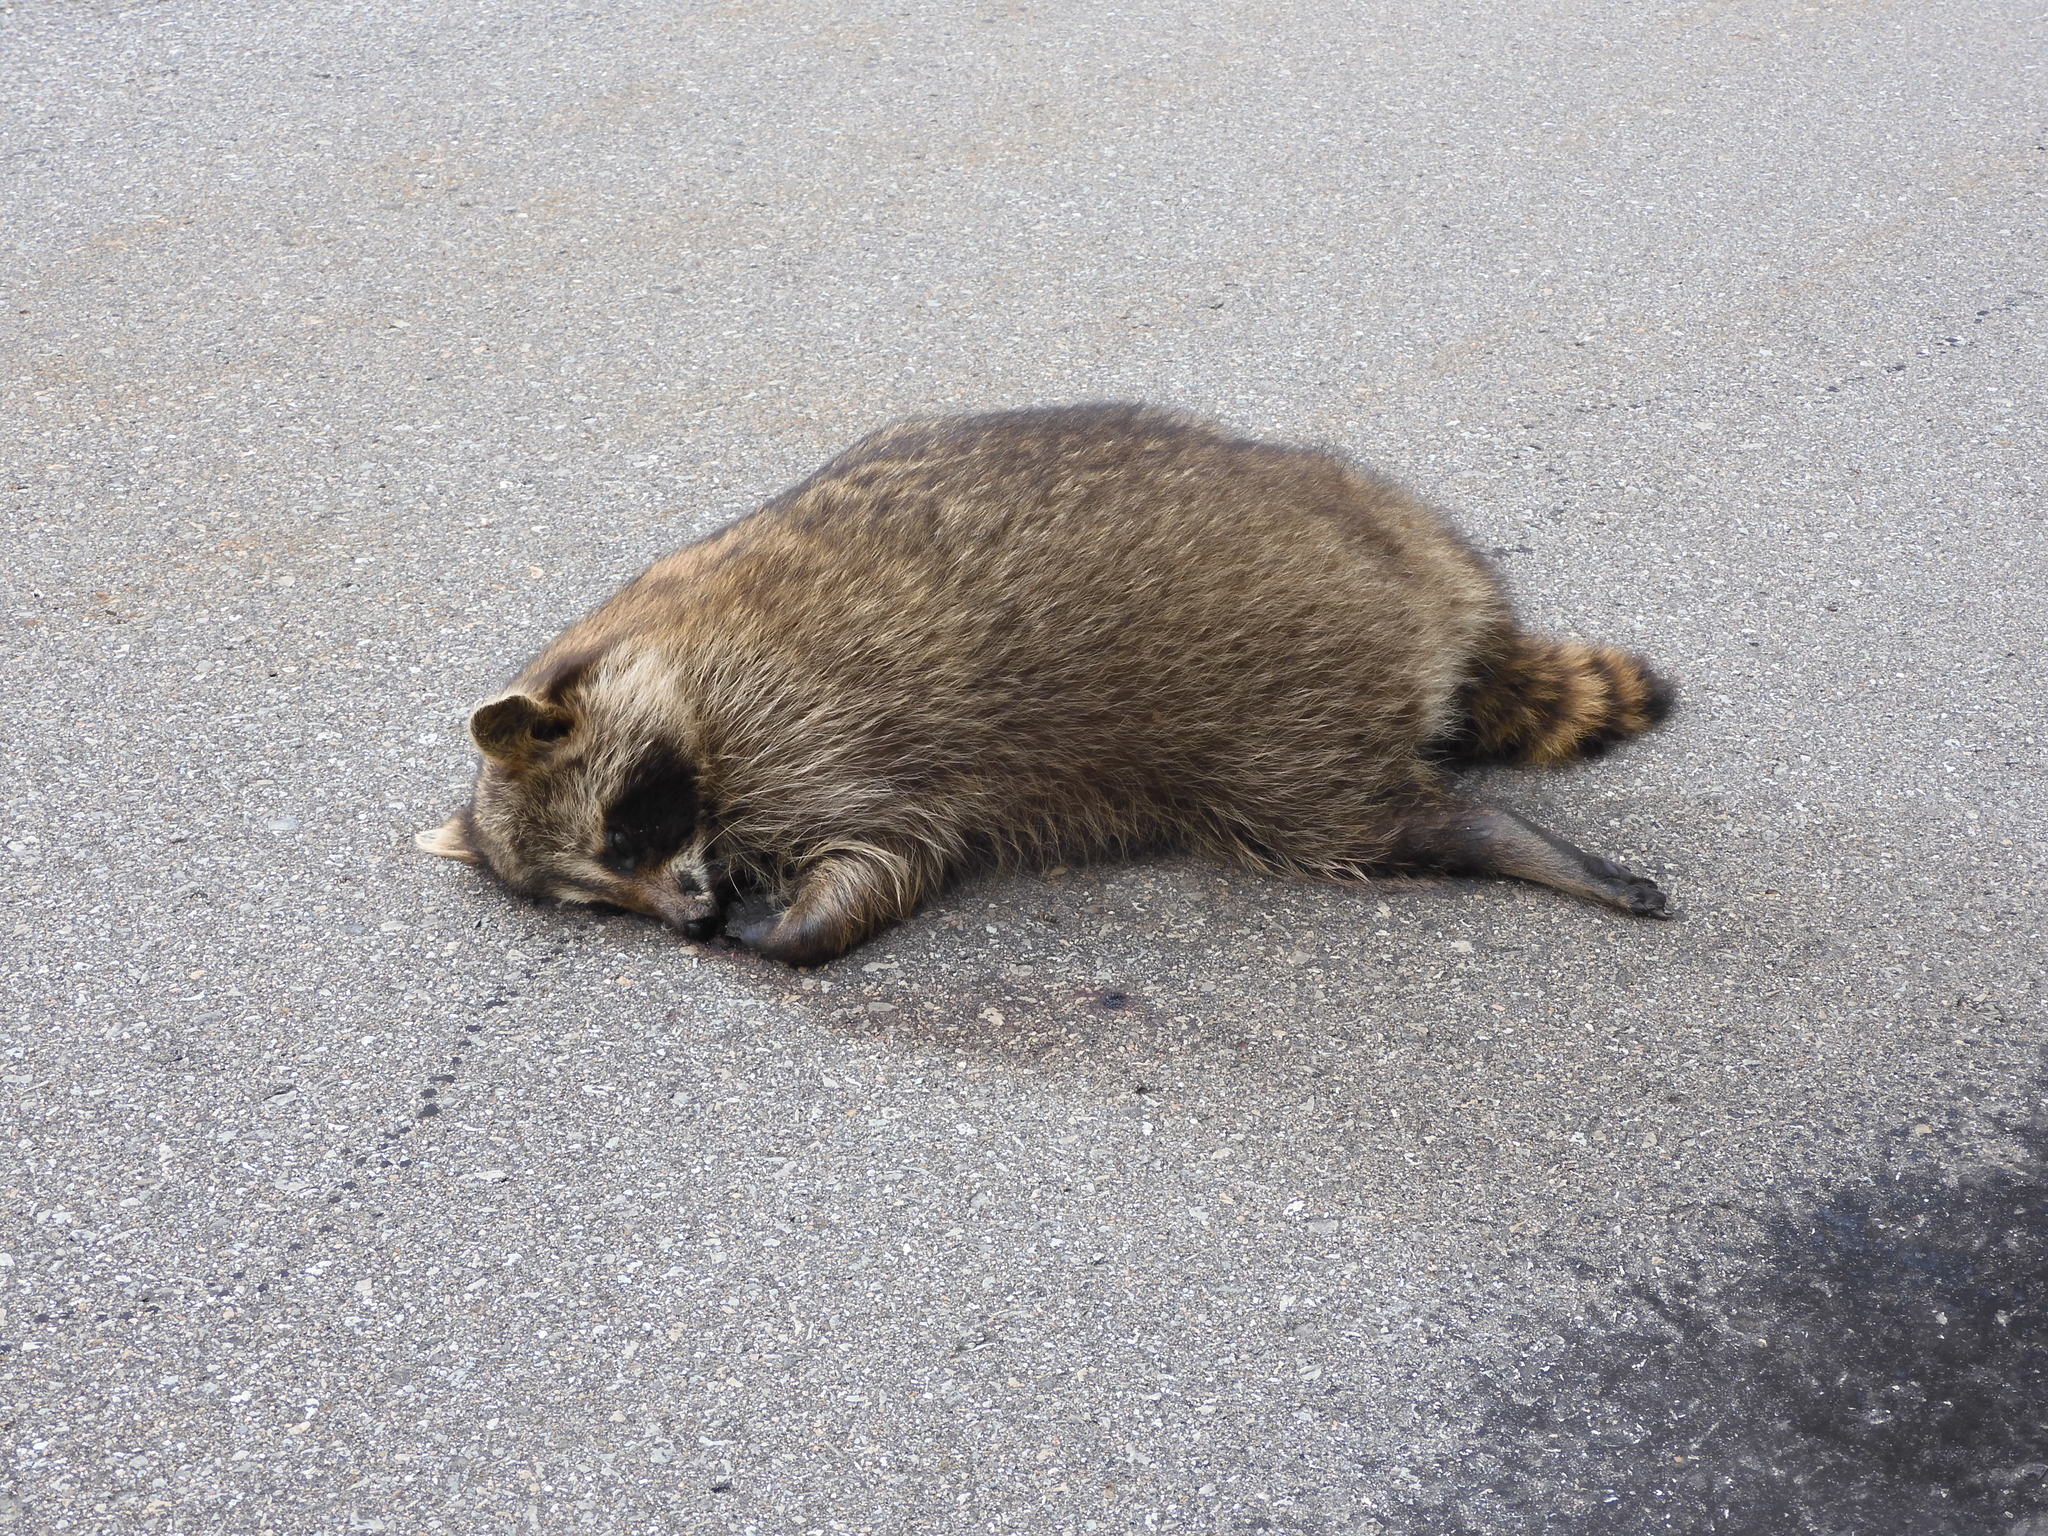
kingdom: Animalia
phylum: Chordata
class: Mammalia
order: Carnivora
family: Procyonidae
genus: Procyon
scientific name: Procyon lotor
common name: Raccoon
